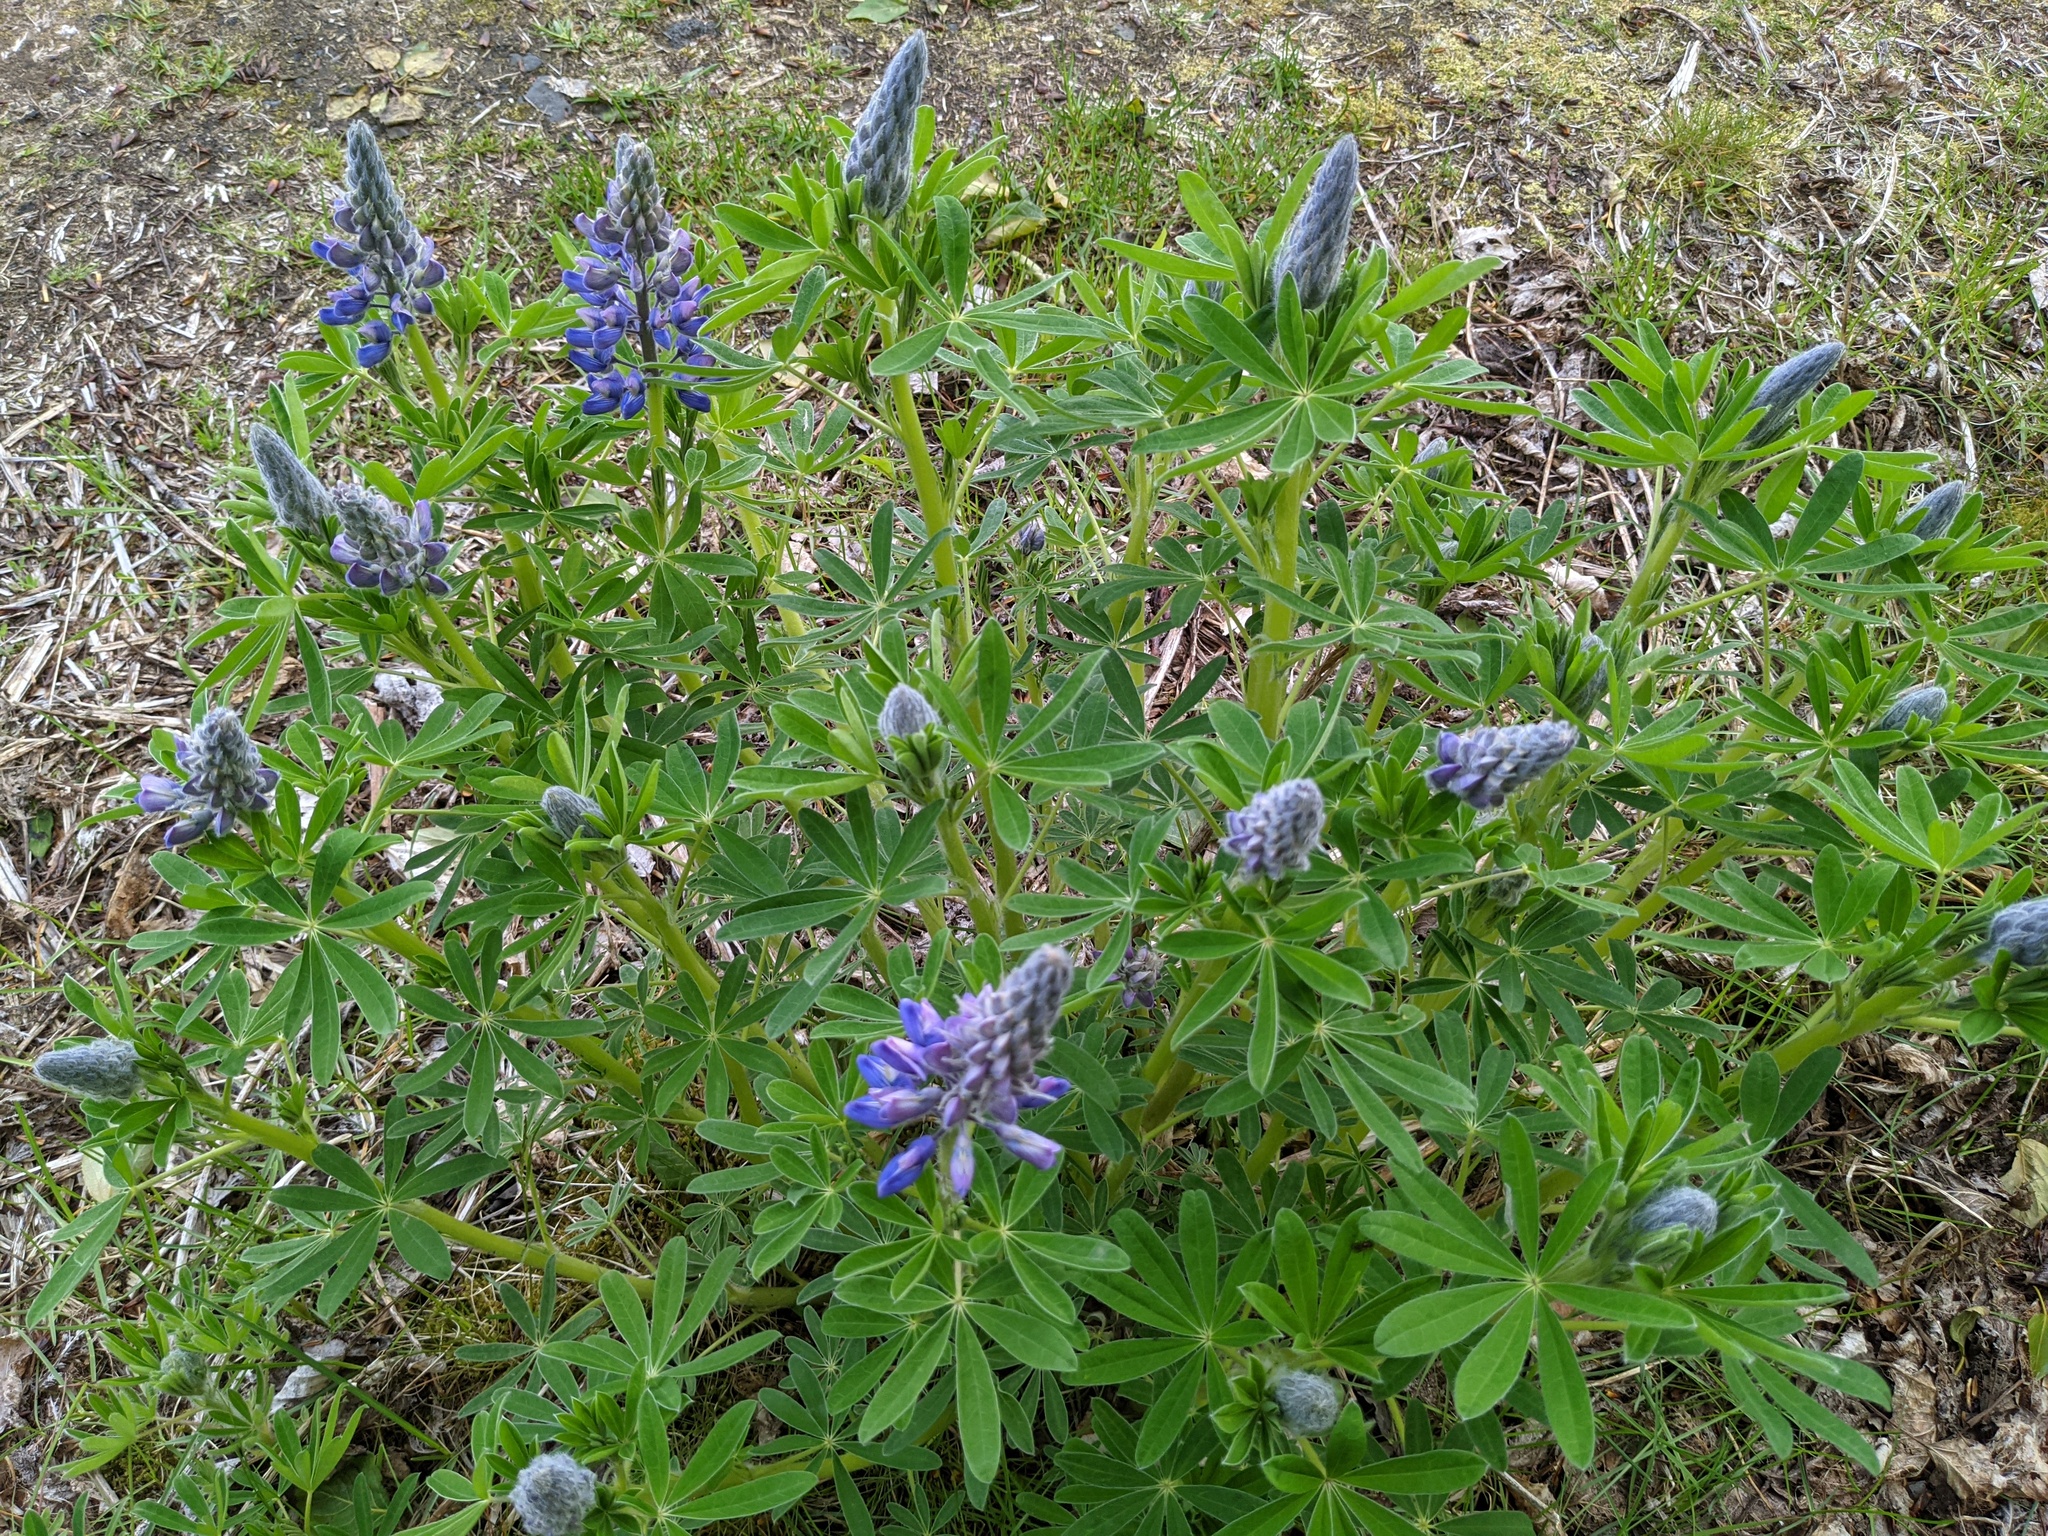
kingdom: Plantae
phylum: Tracheophyta
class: Magnoliopsida
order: Fabales
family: Fabaceae
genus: Lupinus
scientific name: Lupinus nootkatensis
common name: Nootka lupine
